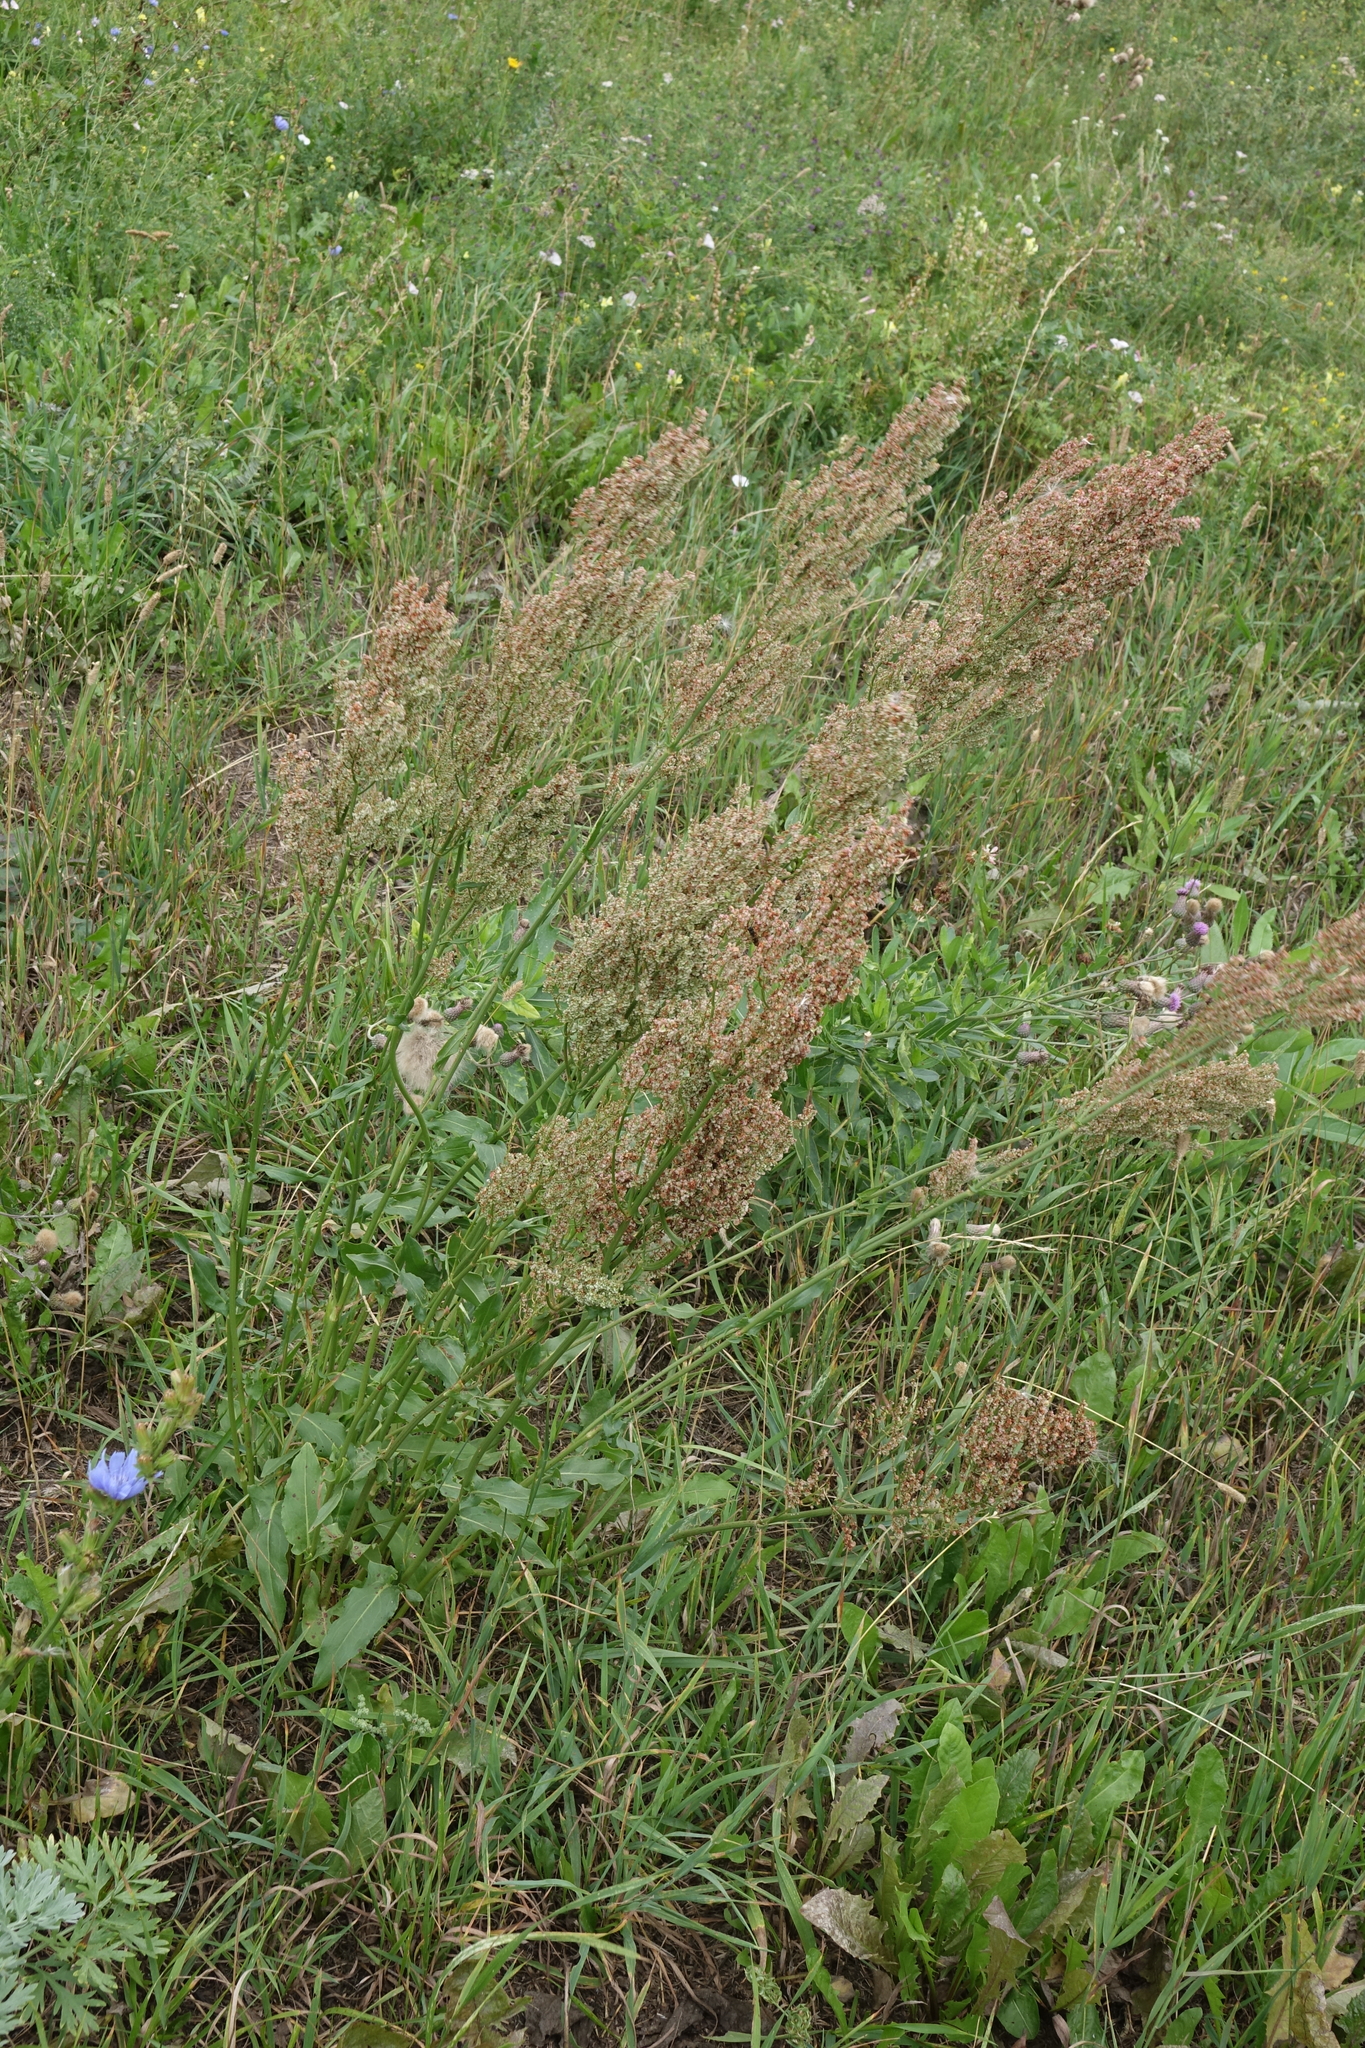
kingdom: Plantae
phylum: Tracheophyta
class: Magnoliopsida
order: Asterales
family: Asteraceae
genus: Artemisia
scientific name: Artemisia absinthium
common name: Wormwood
